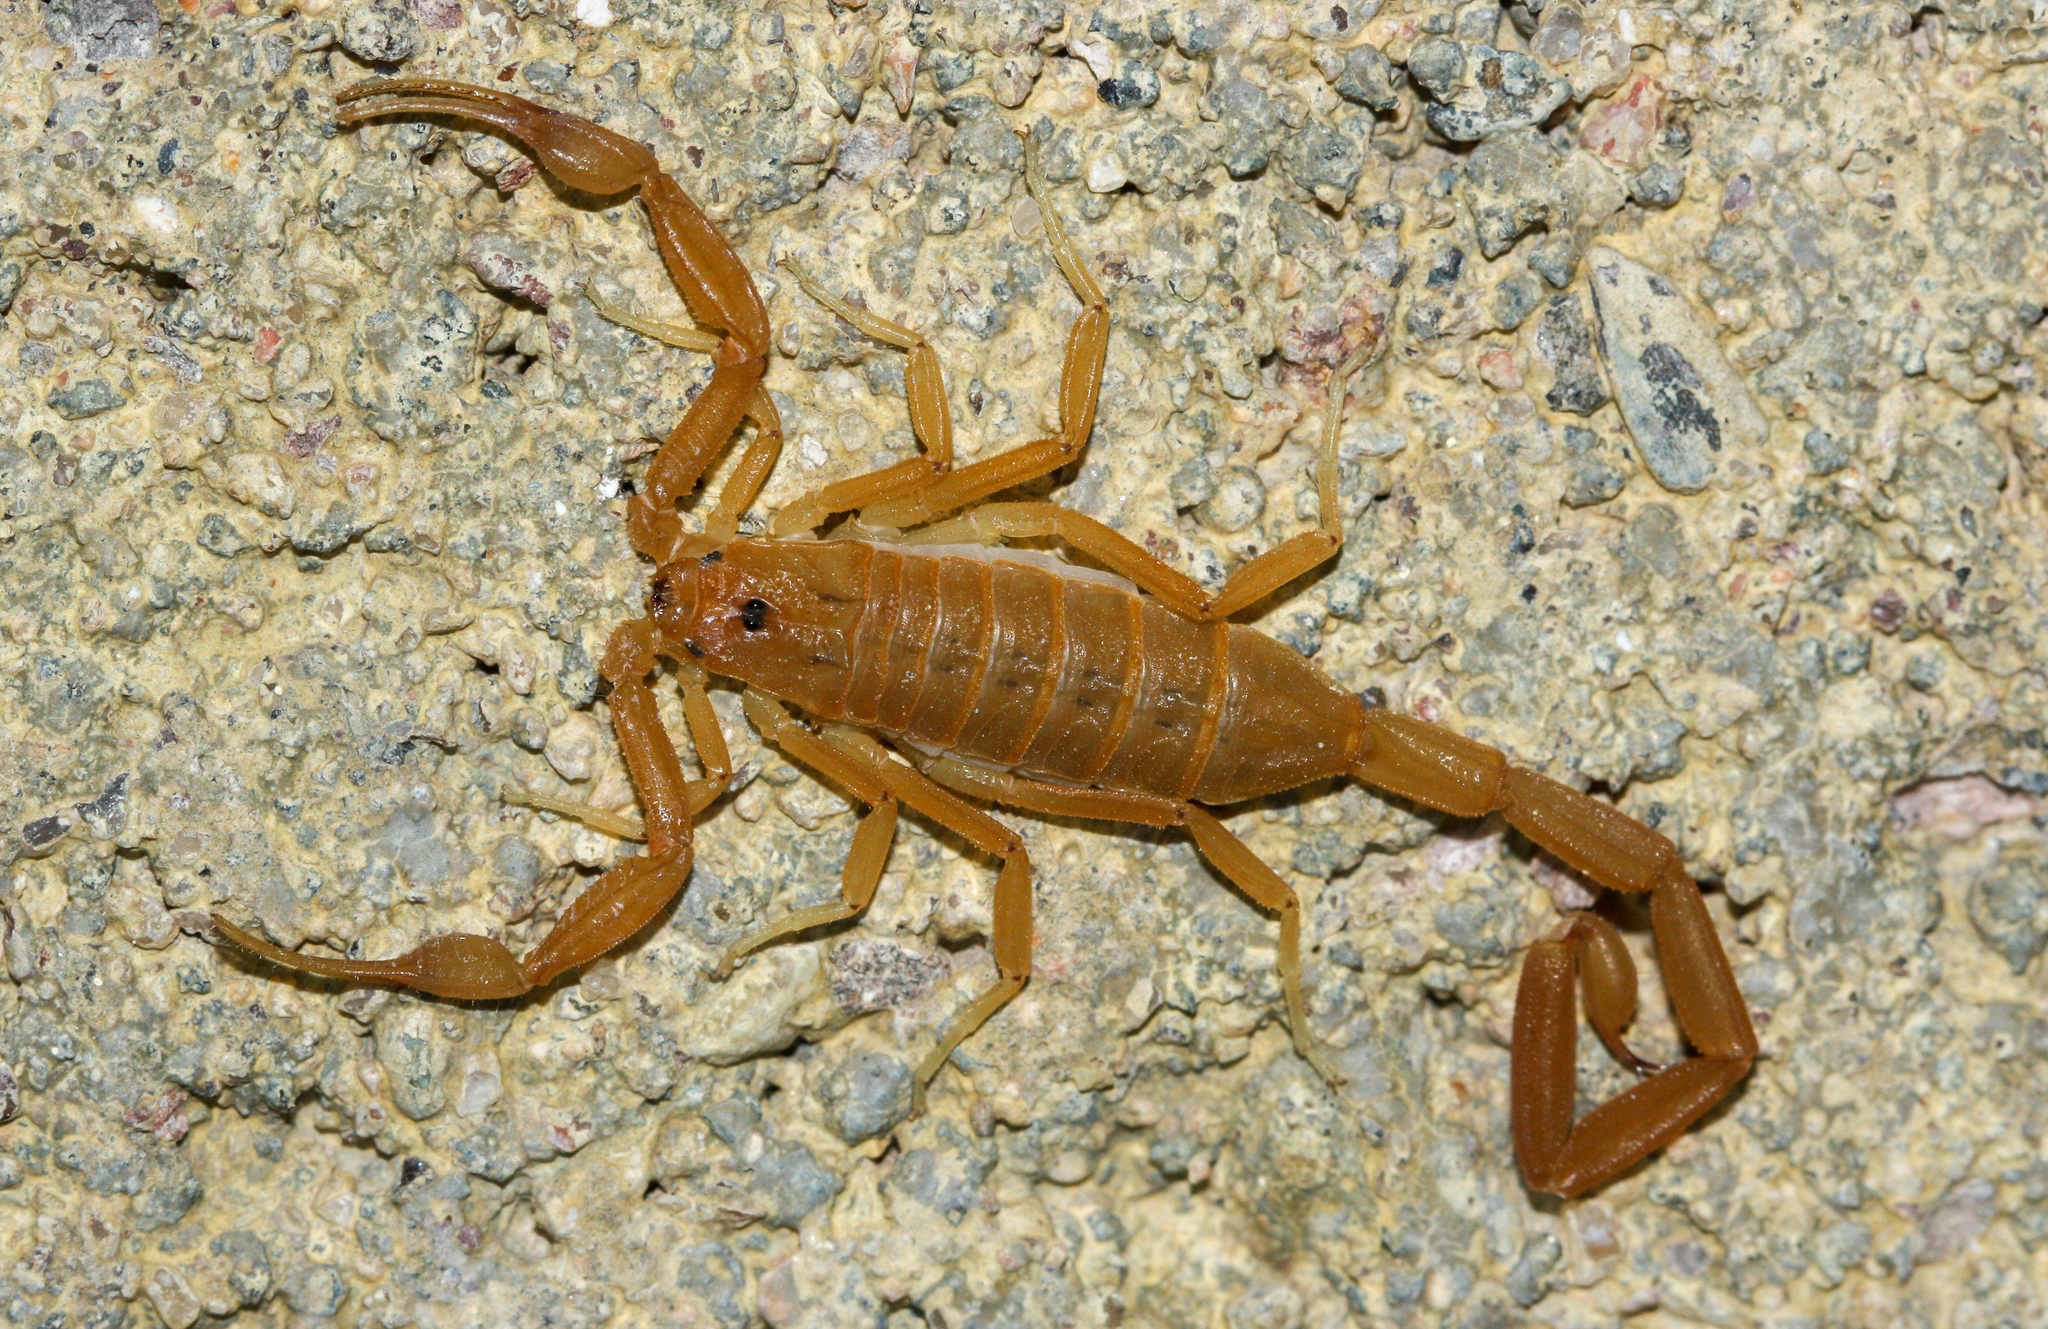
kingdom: Animalia
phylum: Arthropoda
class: Arachnida
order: Scorpiones
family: Buthidae
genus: Centruroides
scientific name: Centruroides sculpturatus
